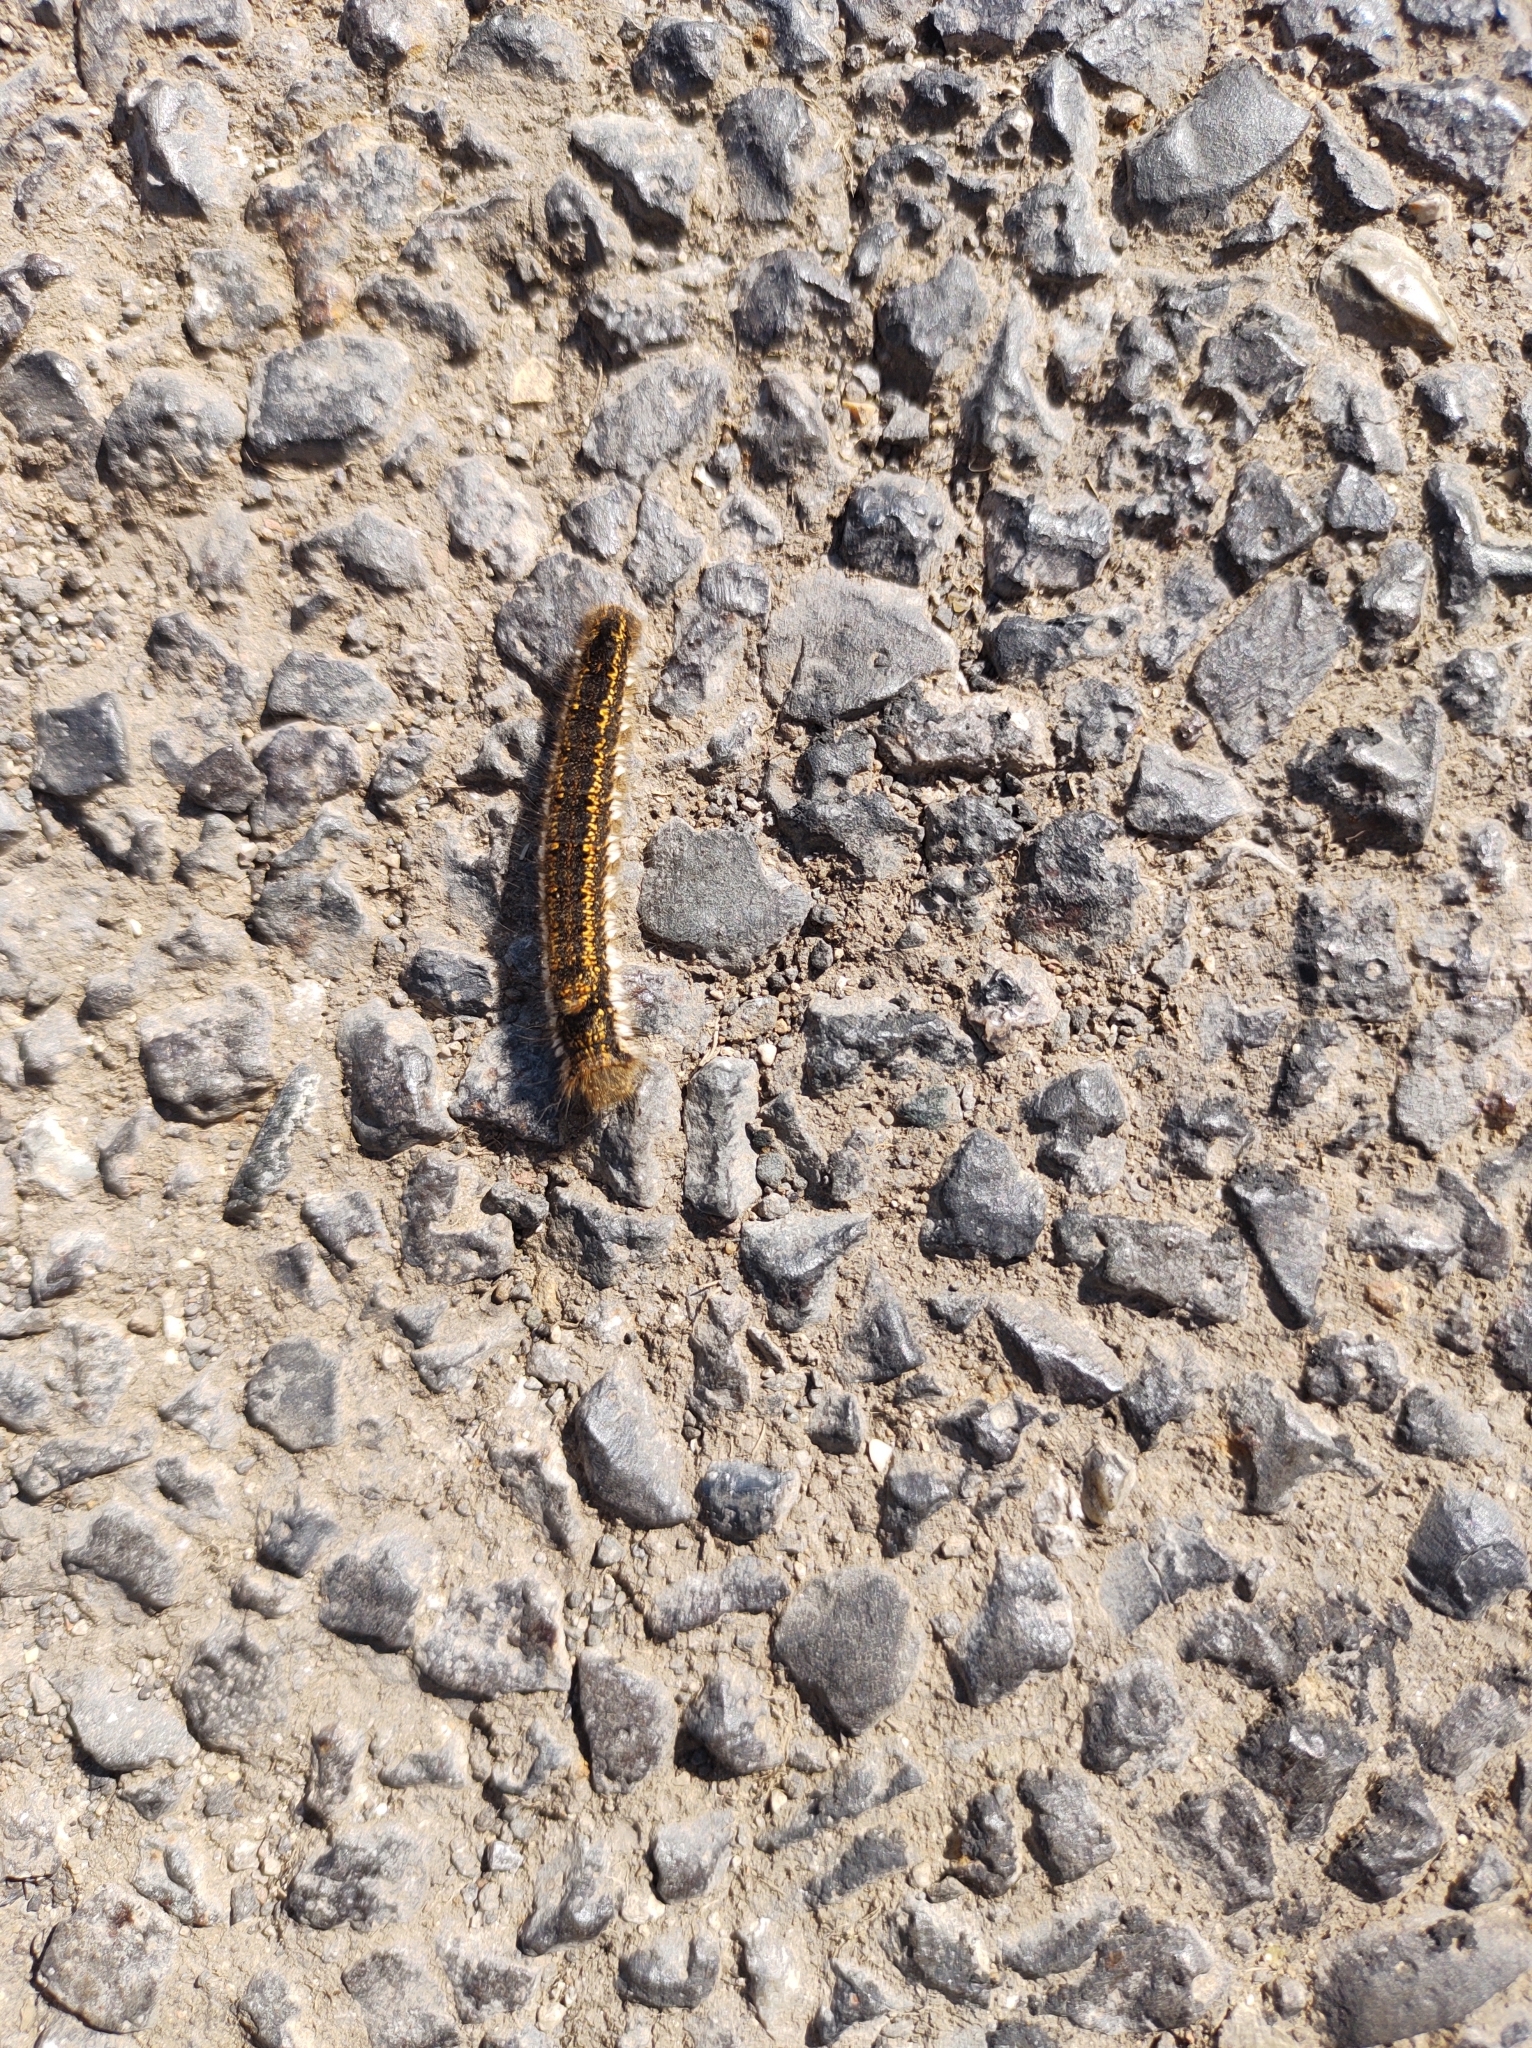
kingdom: Animalia
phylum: Arthropoda
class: Insecta
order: Lepidoptera
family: Lasiocampidae
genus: Euthrix
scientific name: Euthrix potatoria
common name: Drinker
